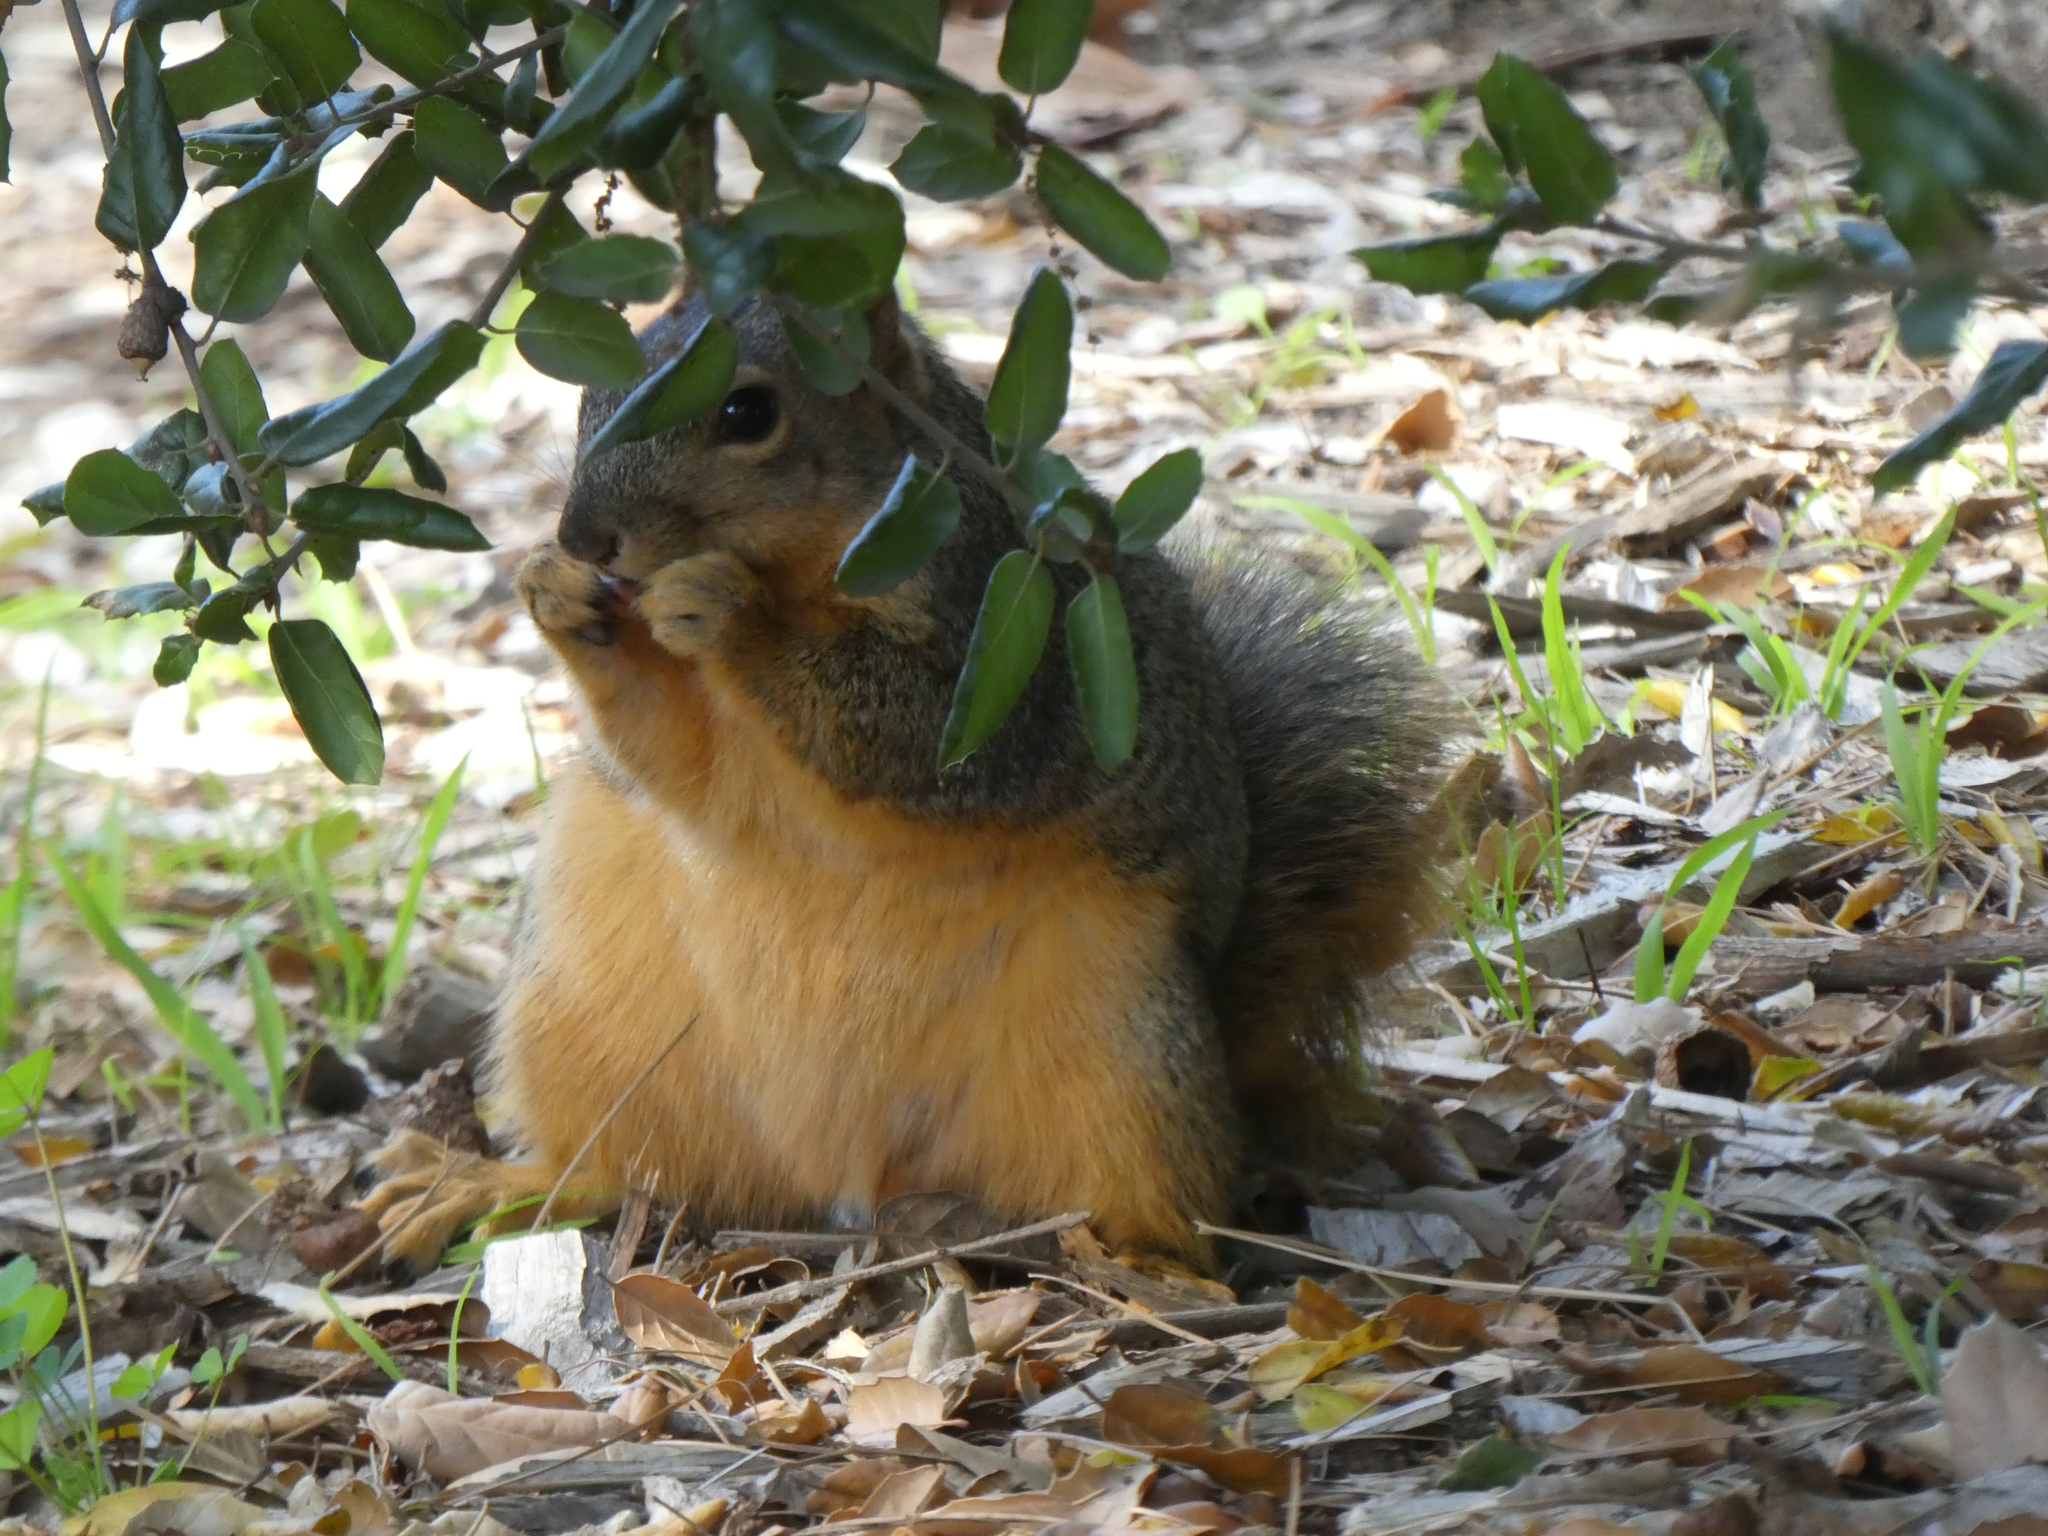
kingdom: Animalia
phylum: Chordata
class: Mammalia
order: Rodentia
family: Sciuridae
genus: Sciurus
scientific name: Sciurus niger
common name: Fox squirrel
